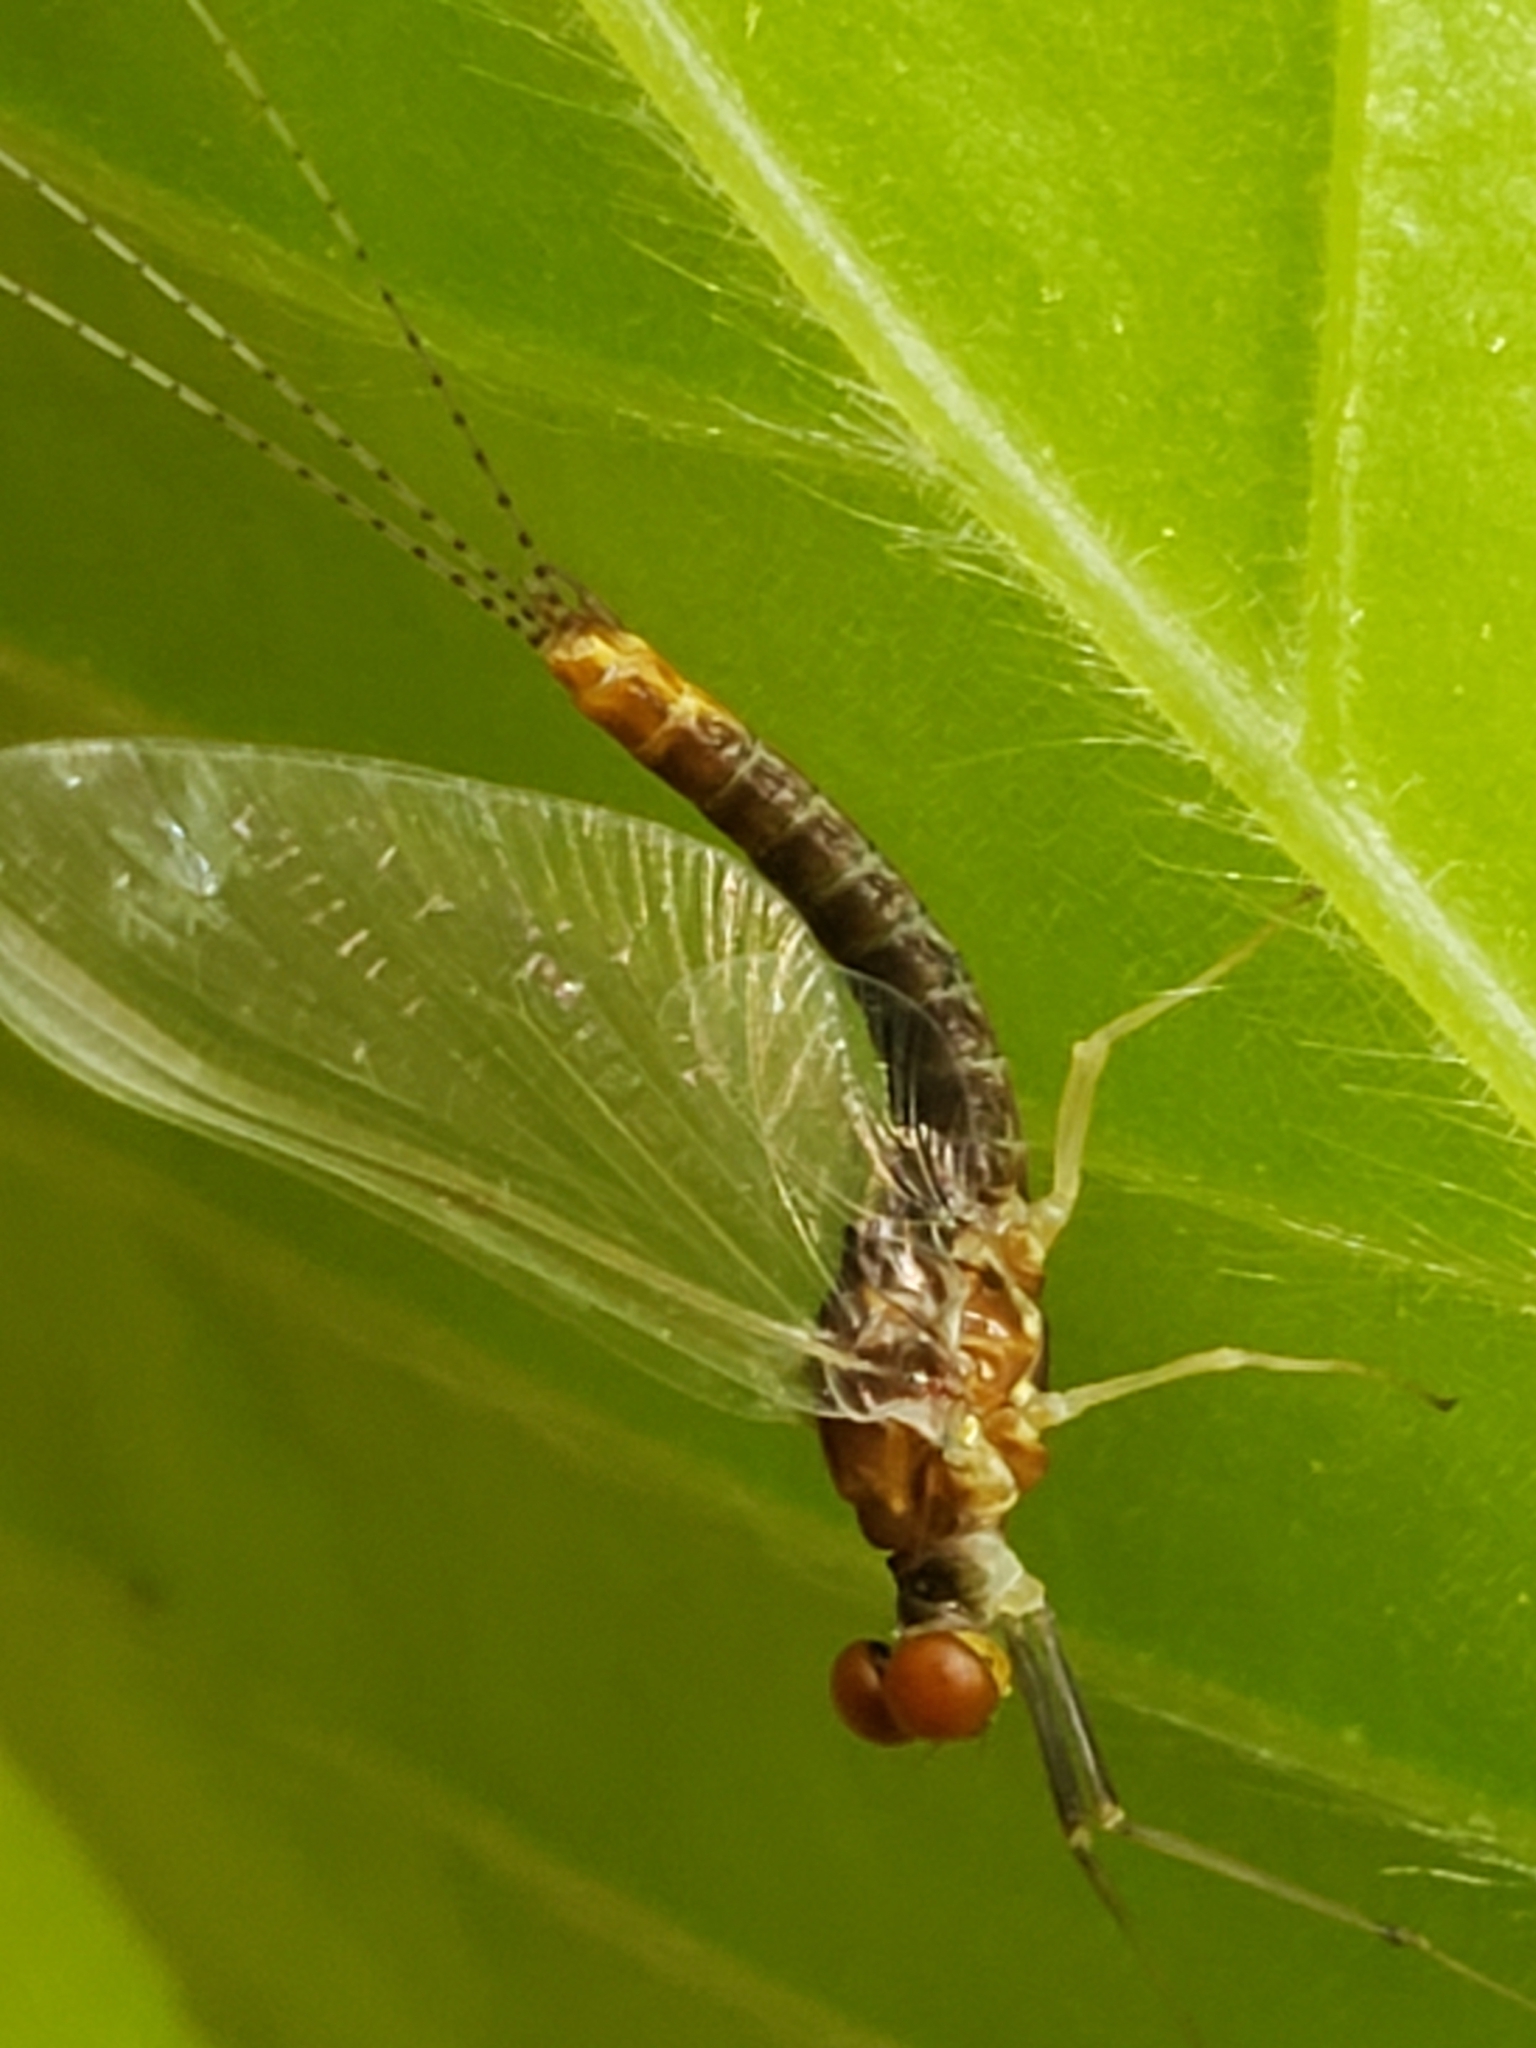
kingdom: Animalia
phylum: Arthropoda
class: Insecta
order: Ephemeroptera
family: Ephemerellidae
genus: Ephemerella
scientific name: Ephemerella needhami
